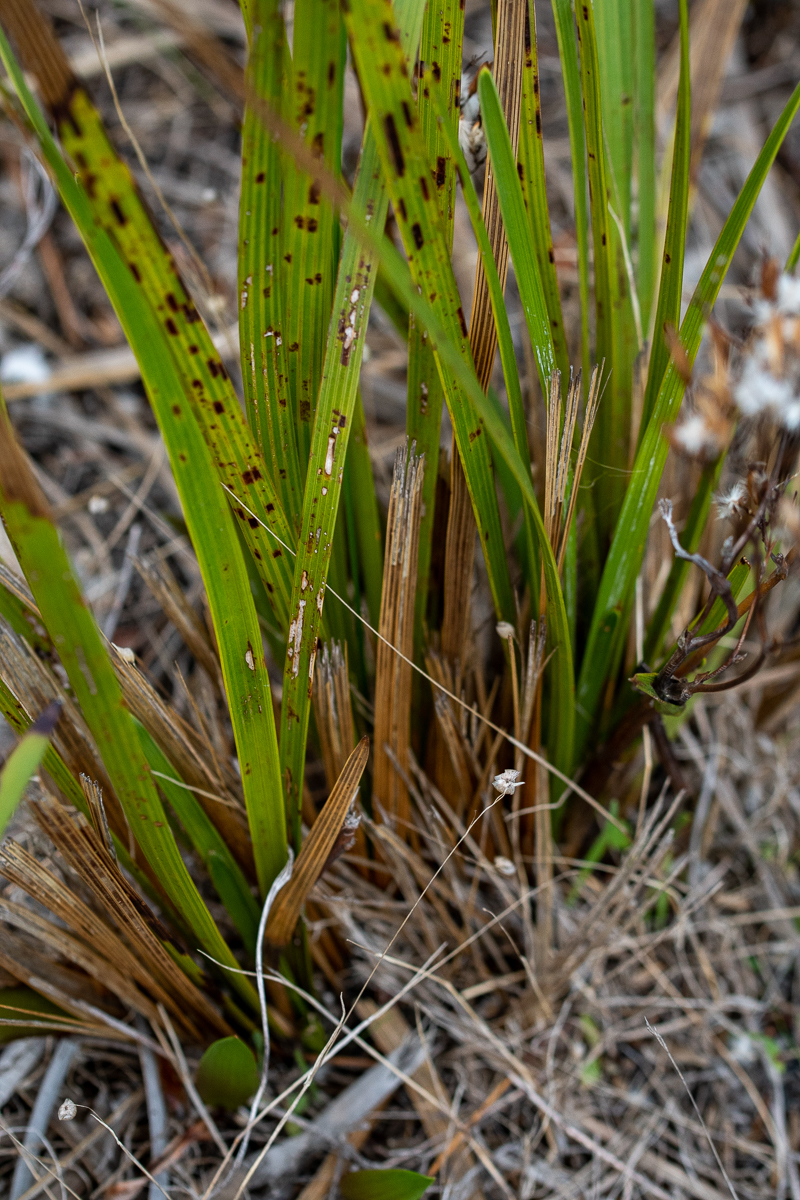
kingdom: Plantae
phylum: Tracheophyta
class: Magnoliopsida
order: Asterales
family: Asteraceae
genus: Corymbium
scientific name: Corymbium glabrum
